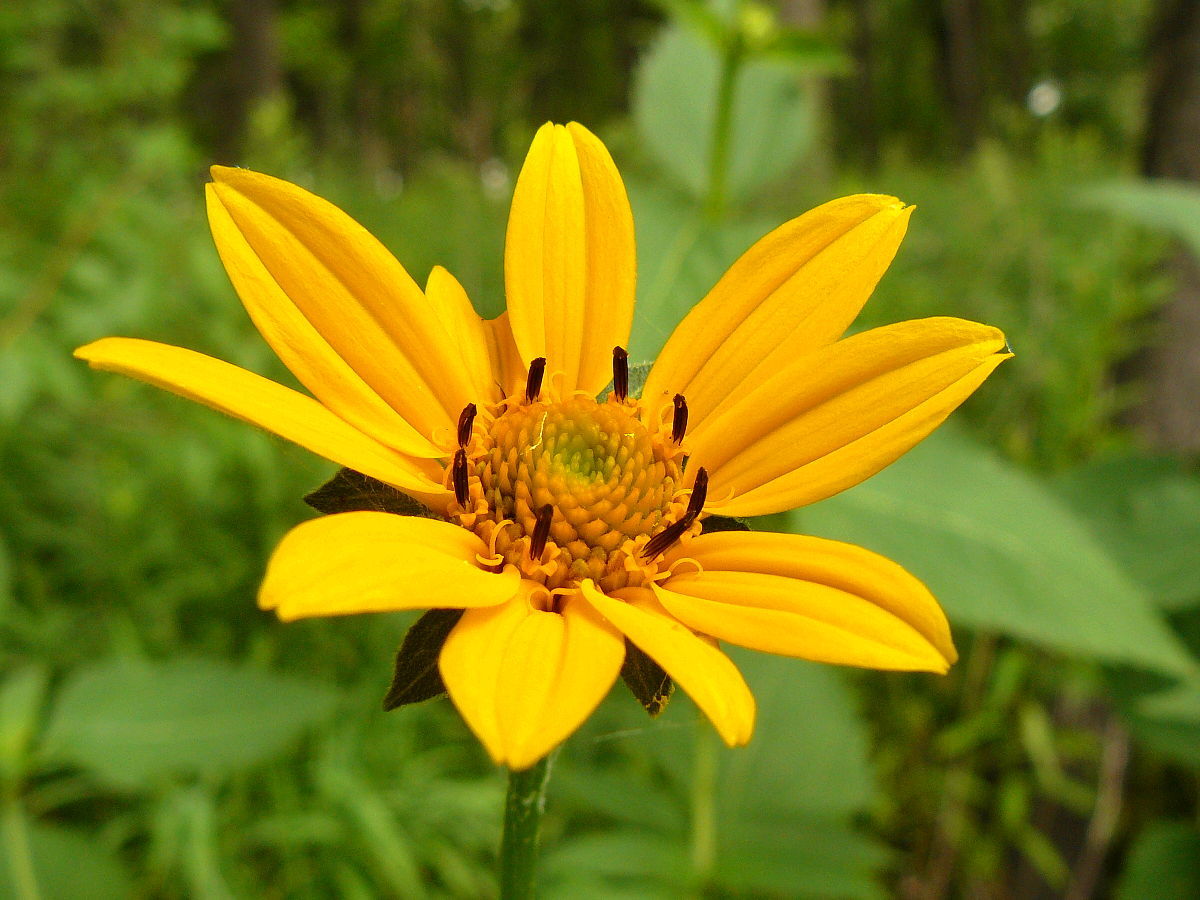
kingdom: Plantae
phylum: Tracheophyta
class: Magnoliopsida
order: Asterales
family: Asteraceae
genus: Heliopsis
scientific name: Heliopsis helianthoides
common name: False sunflower
